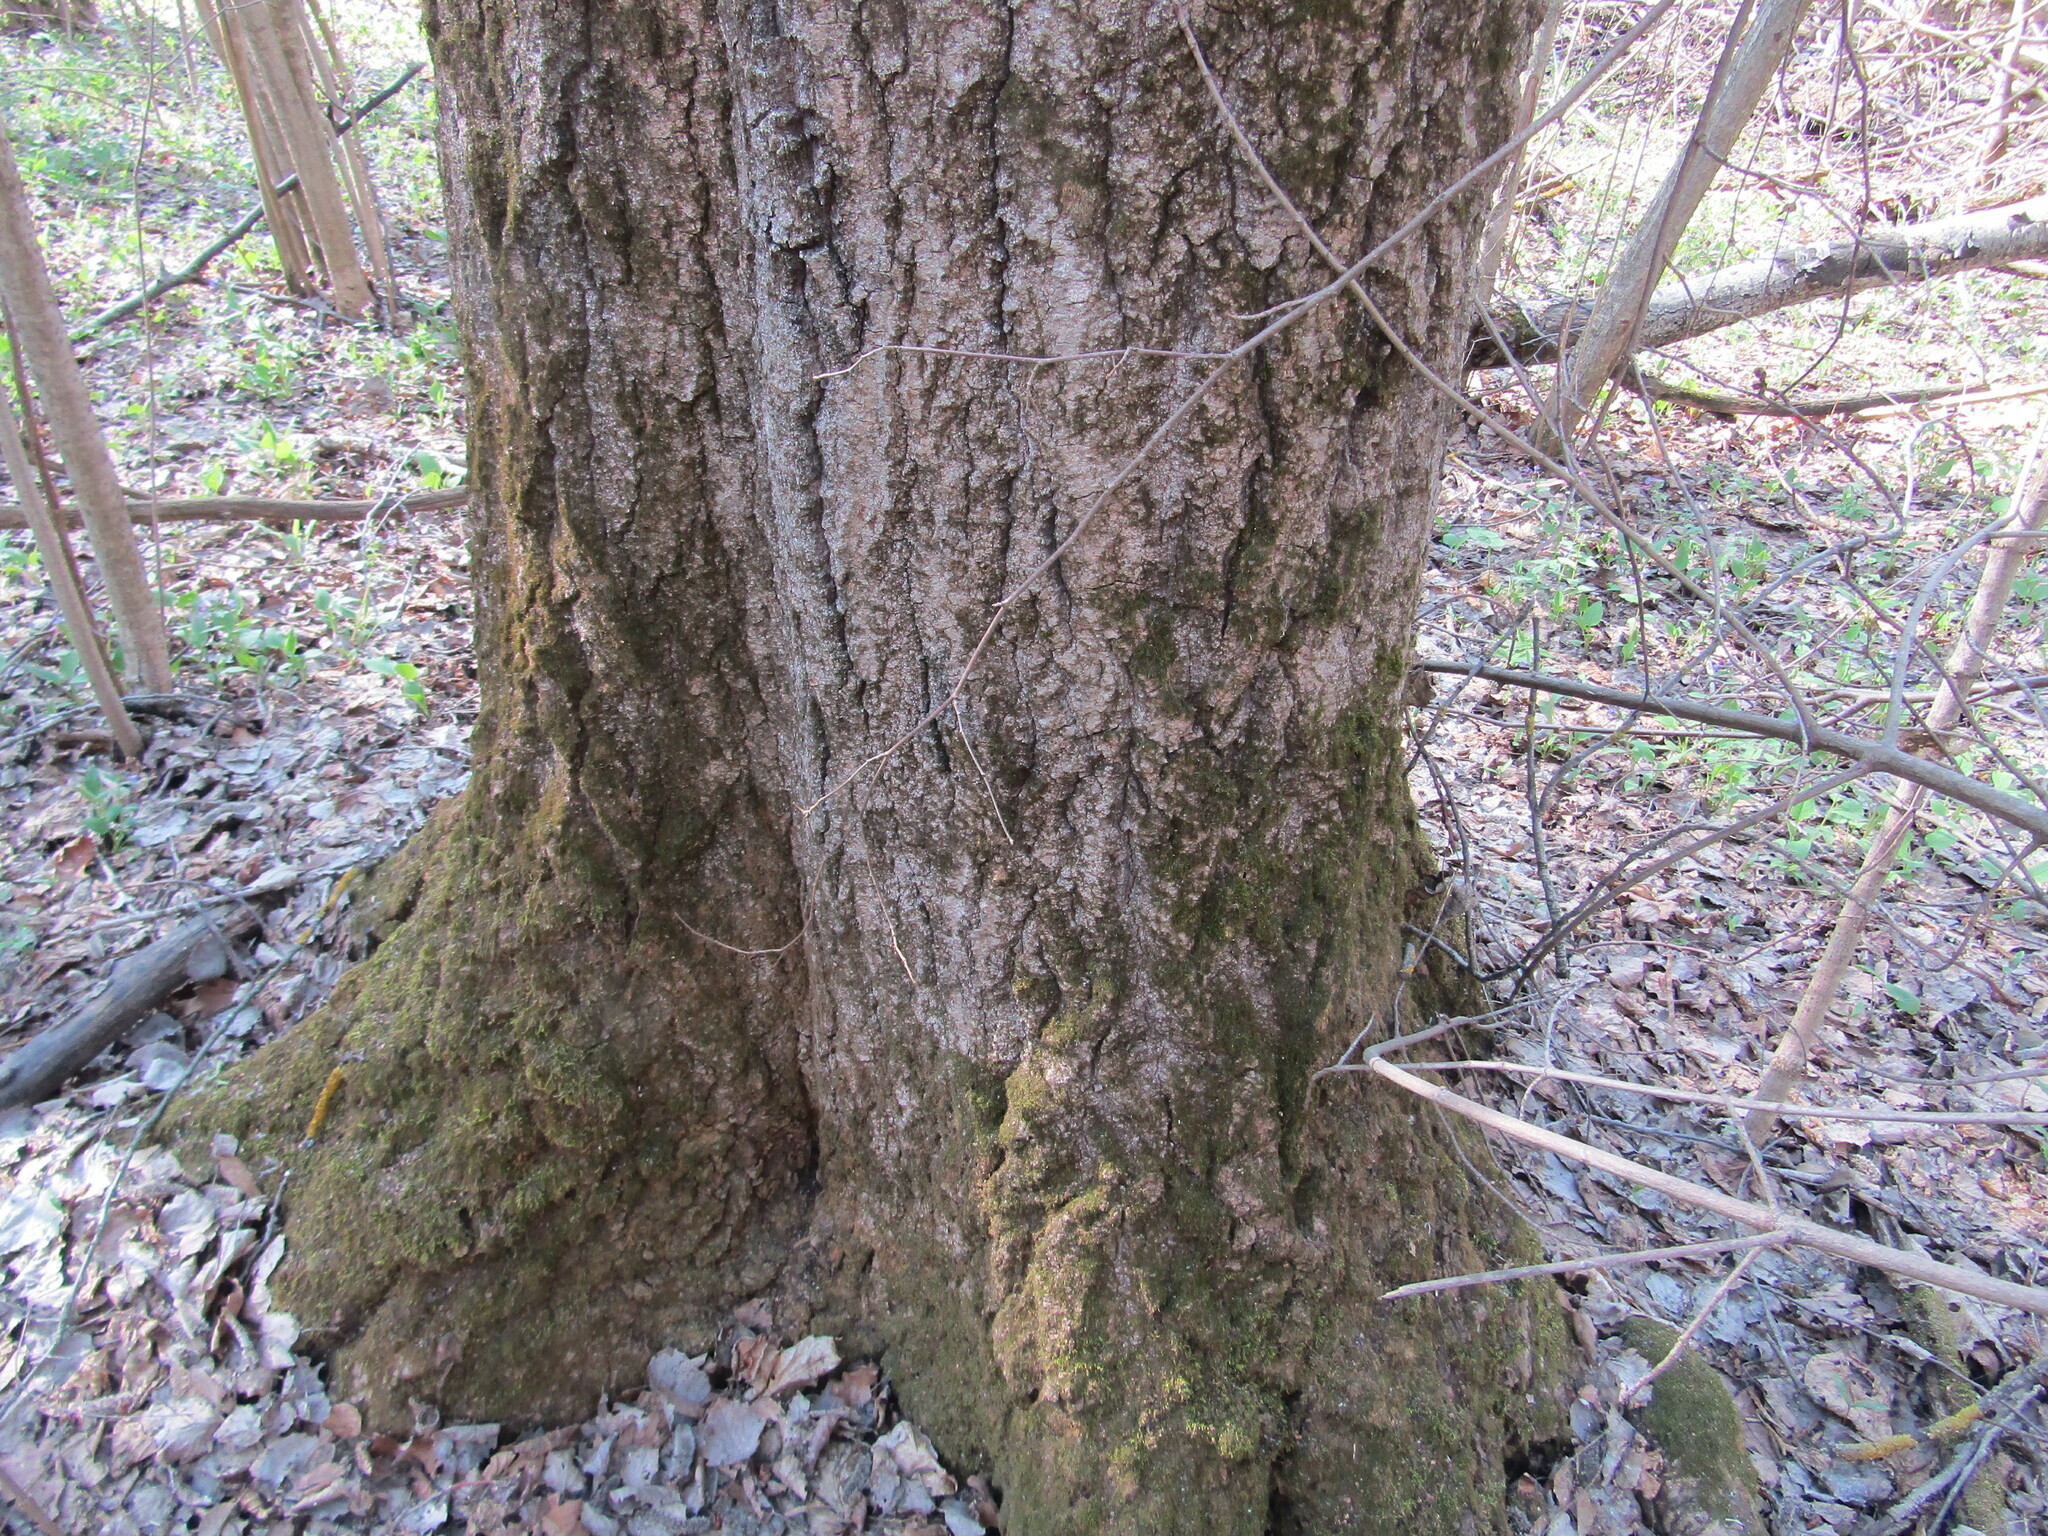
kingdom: Plantae
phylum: Tracheophyta
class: Magnoliopsida
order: Malpighiales
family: Salicaceae
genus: Populus
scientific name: Populus tremula
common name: European aspen
